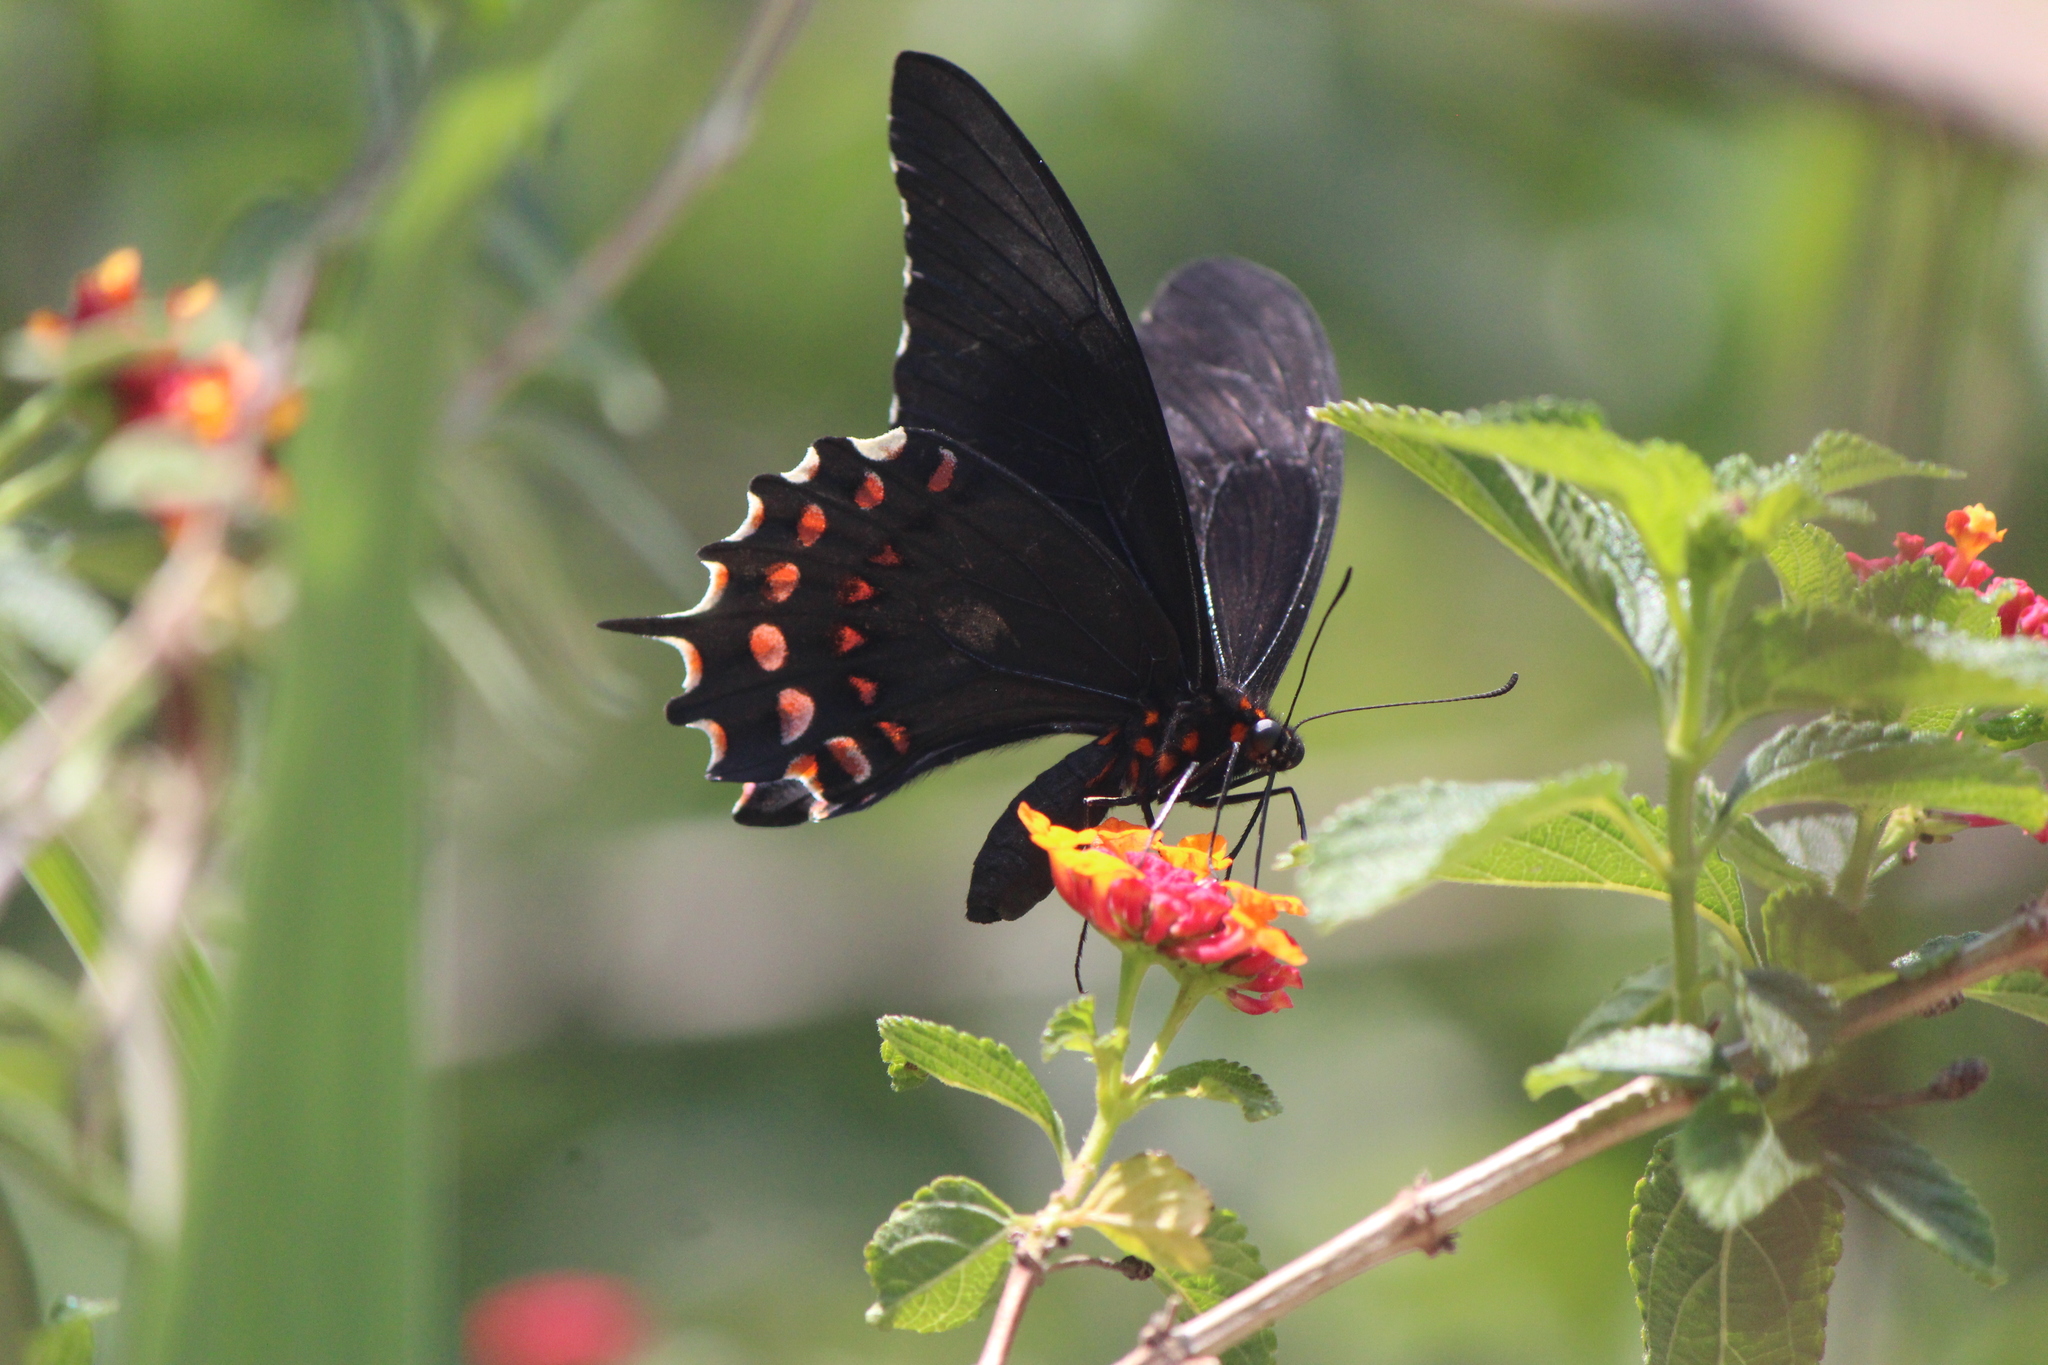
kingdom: Animalia
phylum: Arthropoda
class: Insecta
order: Lepidoptera
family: Papilionidae
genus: Heraclides
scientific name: Heraclides rogeri
